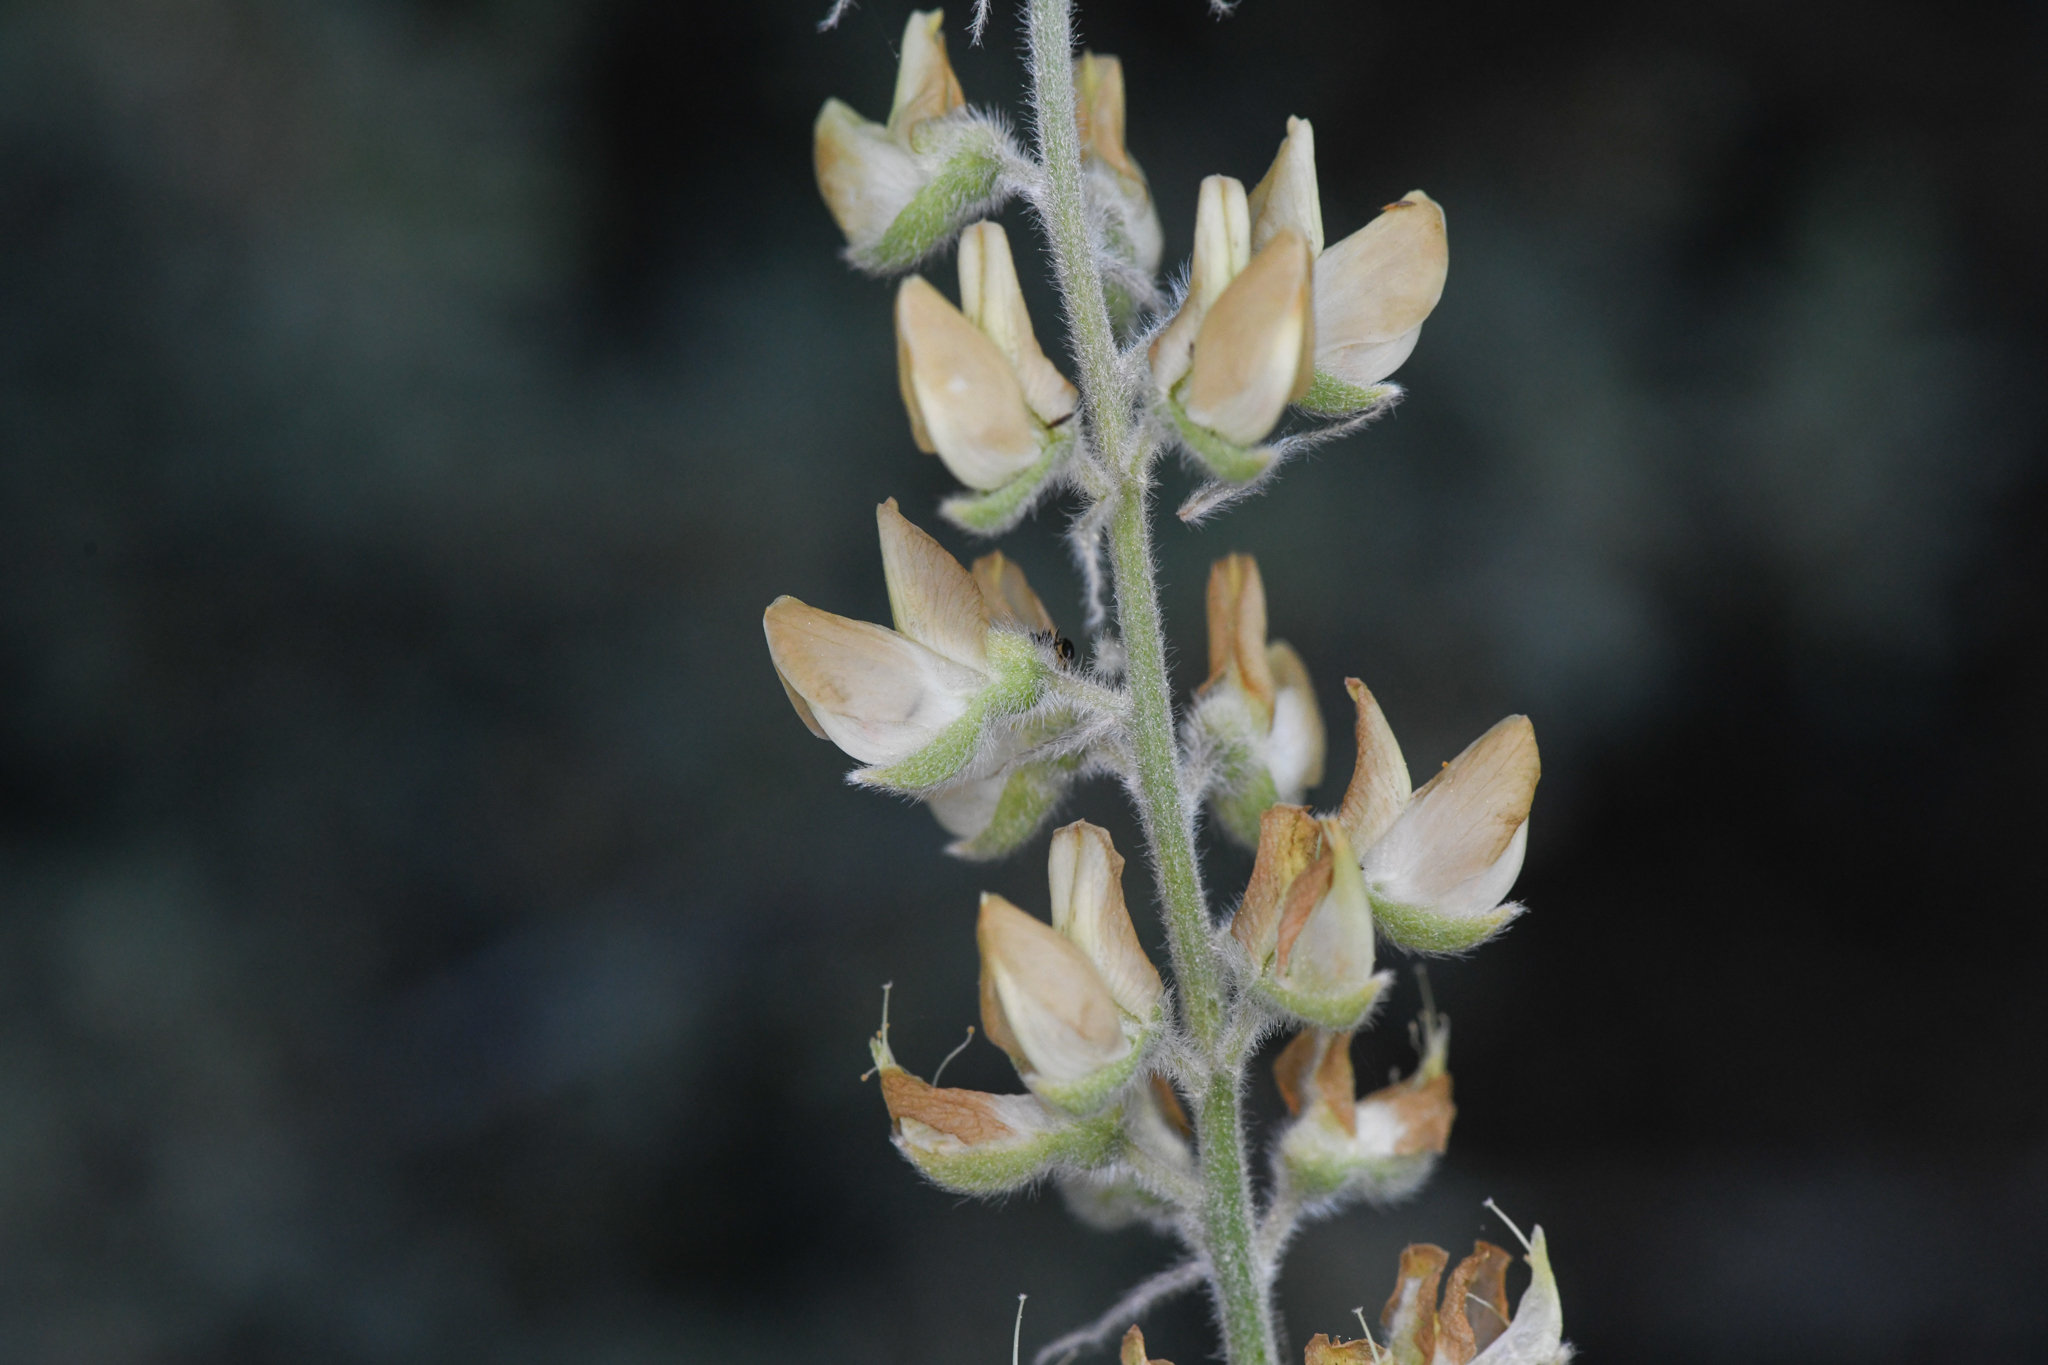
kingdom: Plantae
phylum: Tracheophyta
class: Magnoliopsida
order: Fabales
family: Fabaceae
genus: Lupinus
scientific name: Lupinus padre-crowleyi
